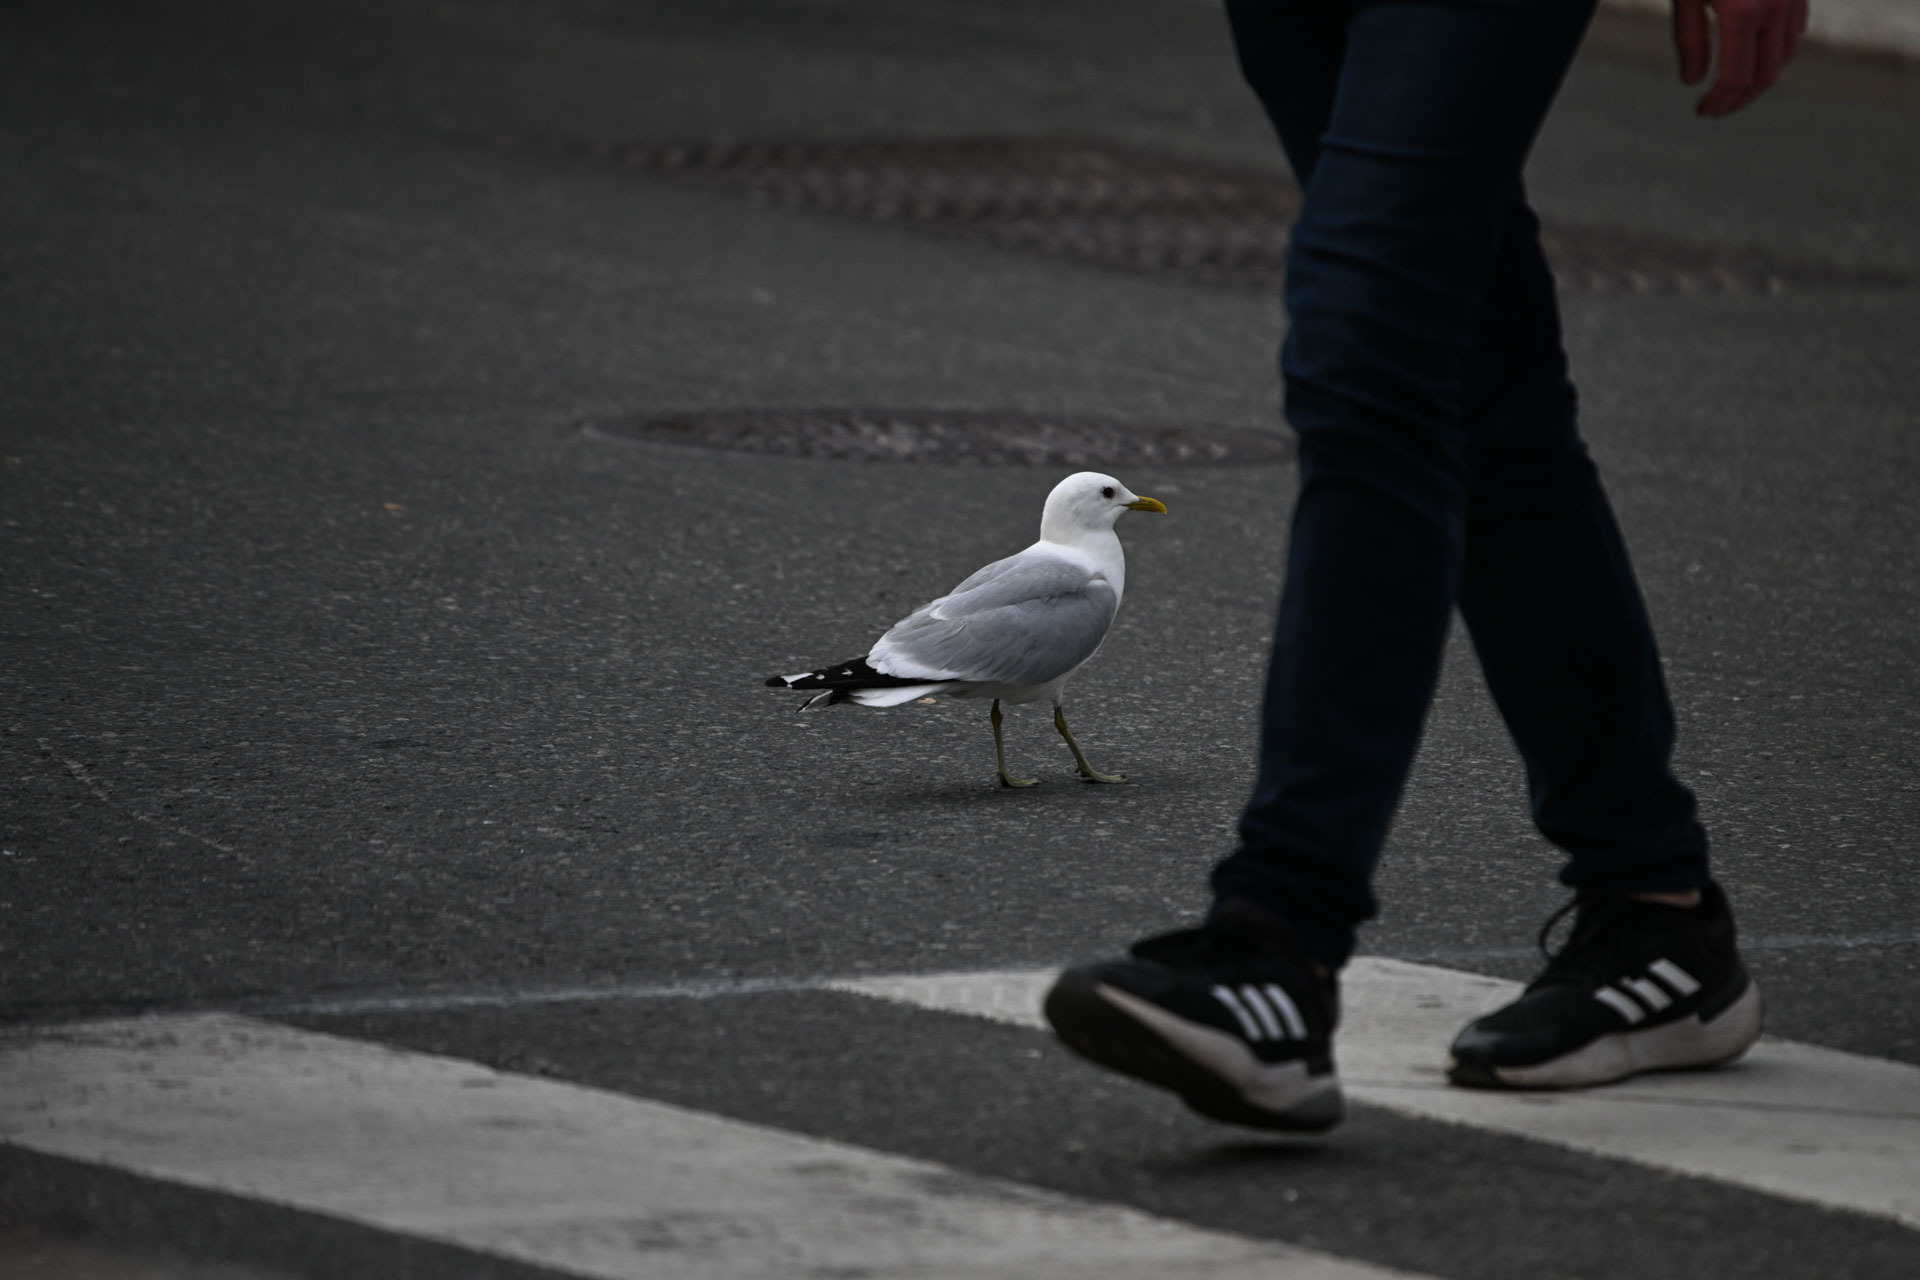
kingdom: Animalia
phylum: Chordata
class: Aves
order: Charadriiformes
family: Laridae
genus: Larus
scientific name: Larus canus
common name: Mew gull
